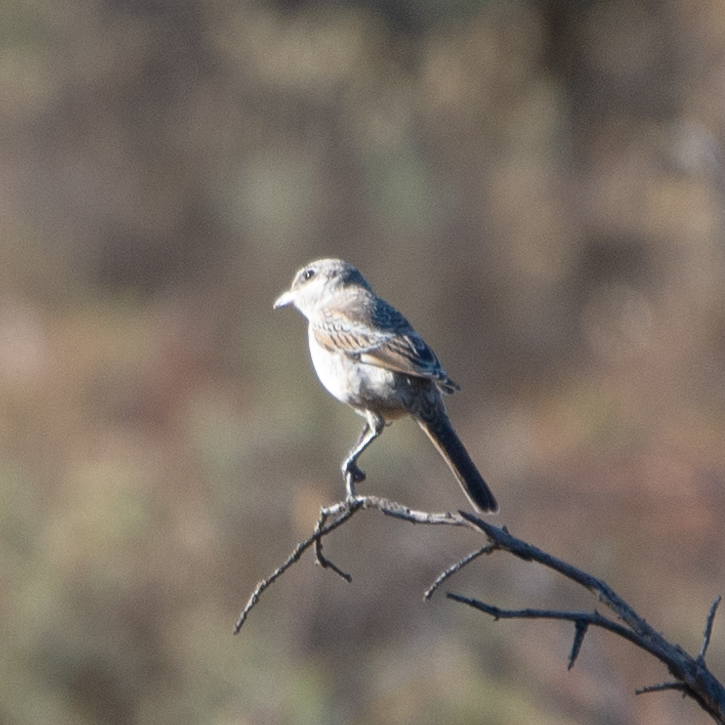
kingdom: Animalia
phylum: Chordata
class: Aves
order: Passeriformes
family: Laniidae
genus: Lanius
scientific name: Lanius senator
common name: Woodchat shrike
